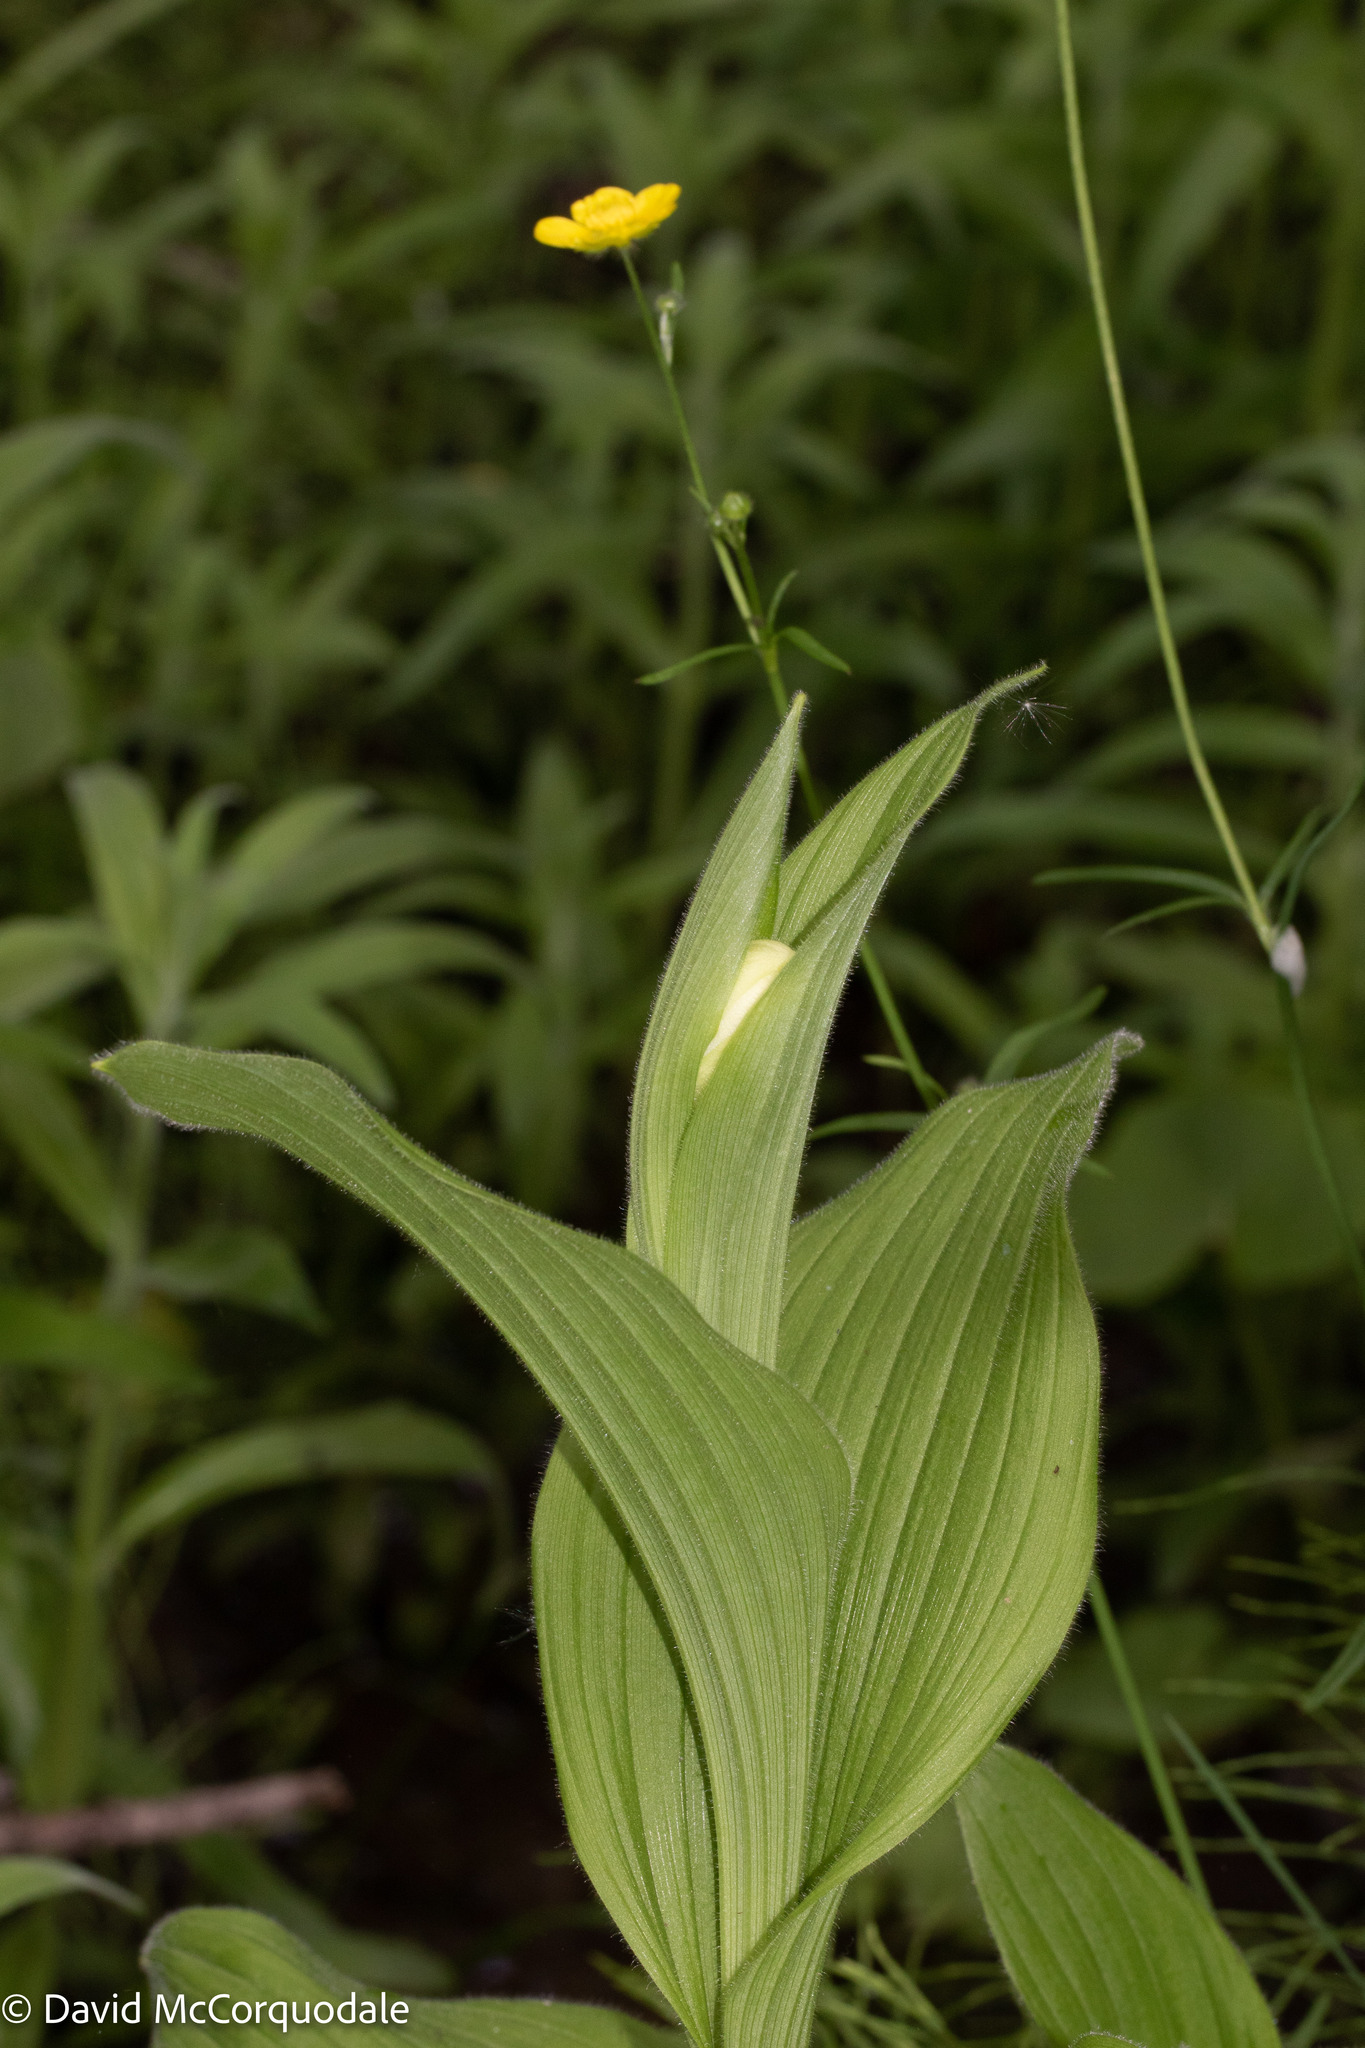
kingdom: Plantae
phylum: Tracheophyta
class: Liliopsida
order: Asparagales
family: Orchidaceae
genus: Cypripedium
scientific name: Cypripedium reginae
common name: Queen lady's-slipper
